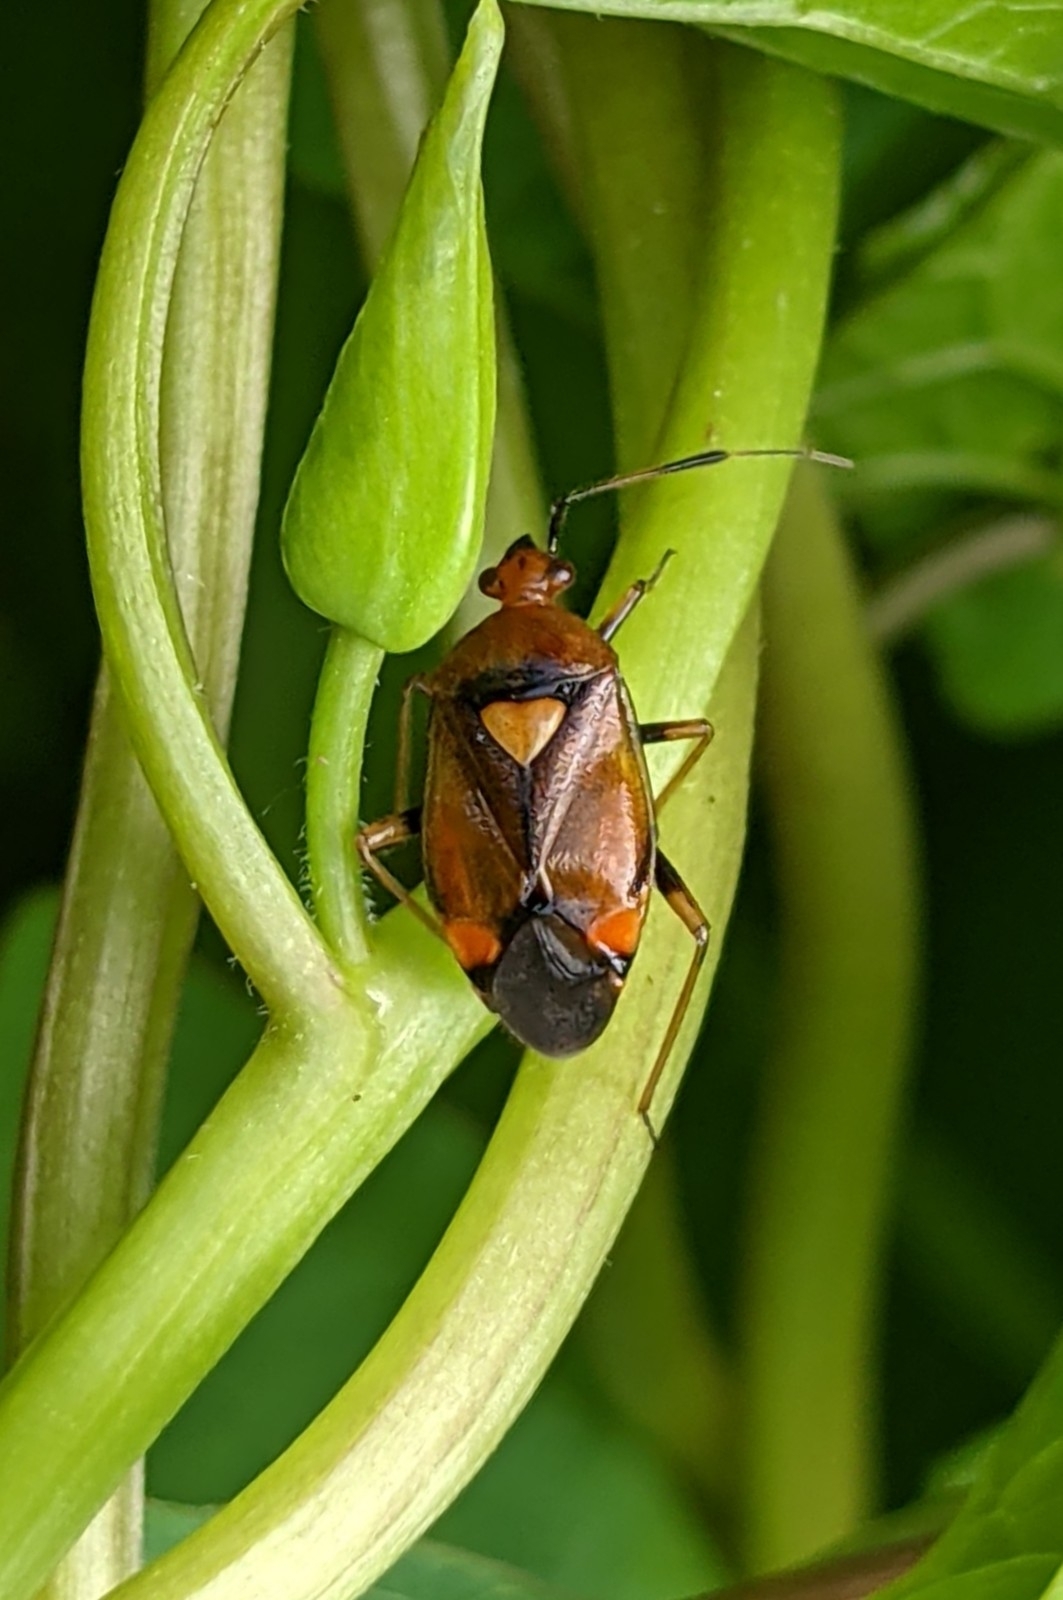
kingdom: Animalia
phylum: Arthropoda
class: Insecta
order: Hemiptera
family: Miridae
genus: Deraeocoris
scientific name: Deraeocoris ruber
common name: Plant bug
